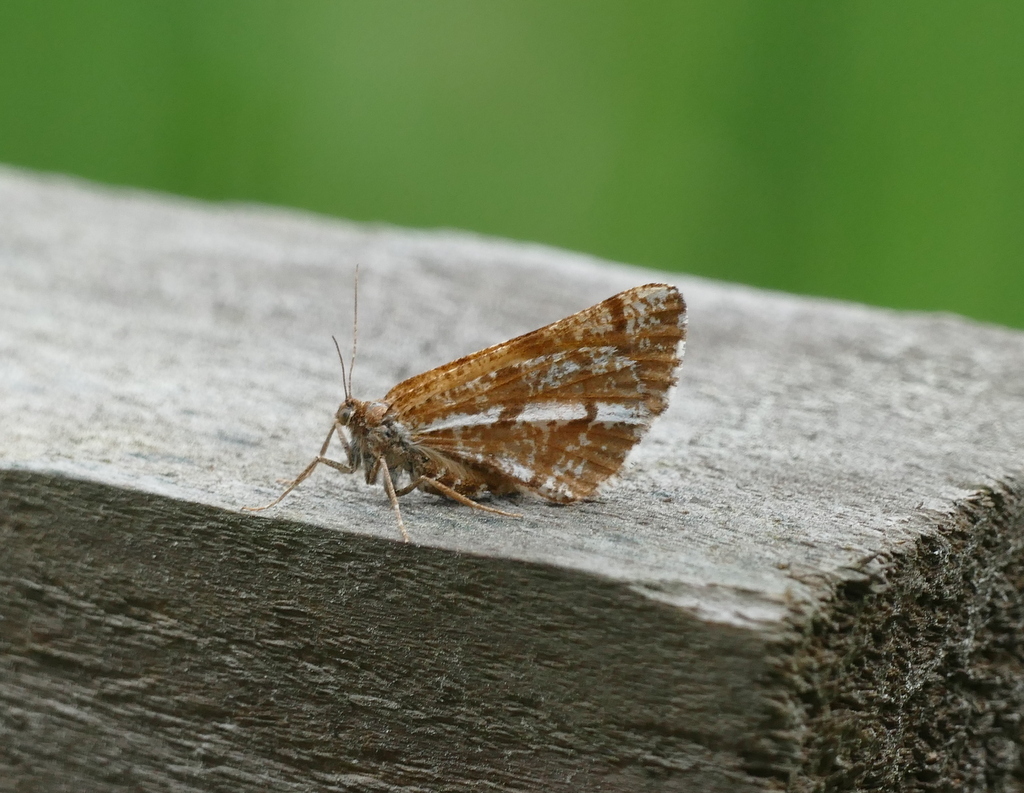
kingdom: Animalia
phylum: Arthropoda
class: Insecta
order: Lepidoptera
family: Geometridae
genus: Bupalus
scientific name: Bupalus piniaria
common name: Bordered white
